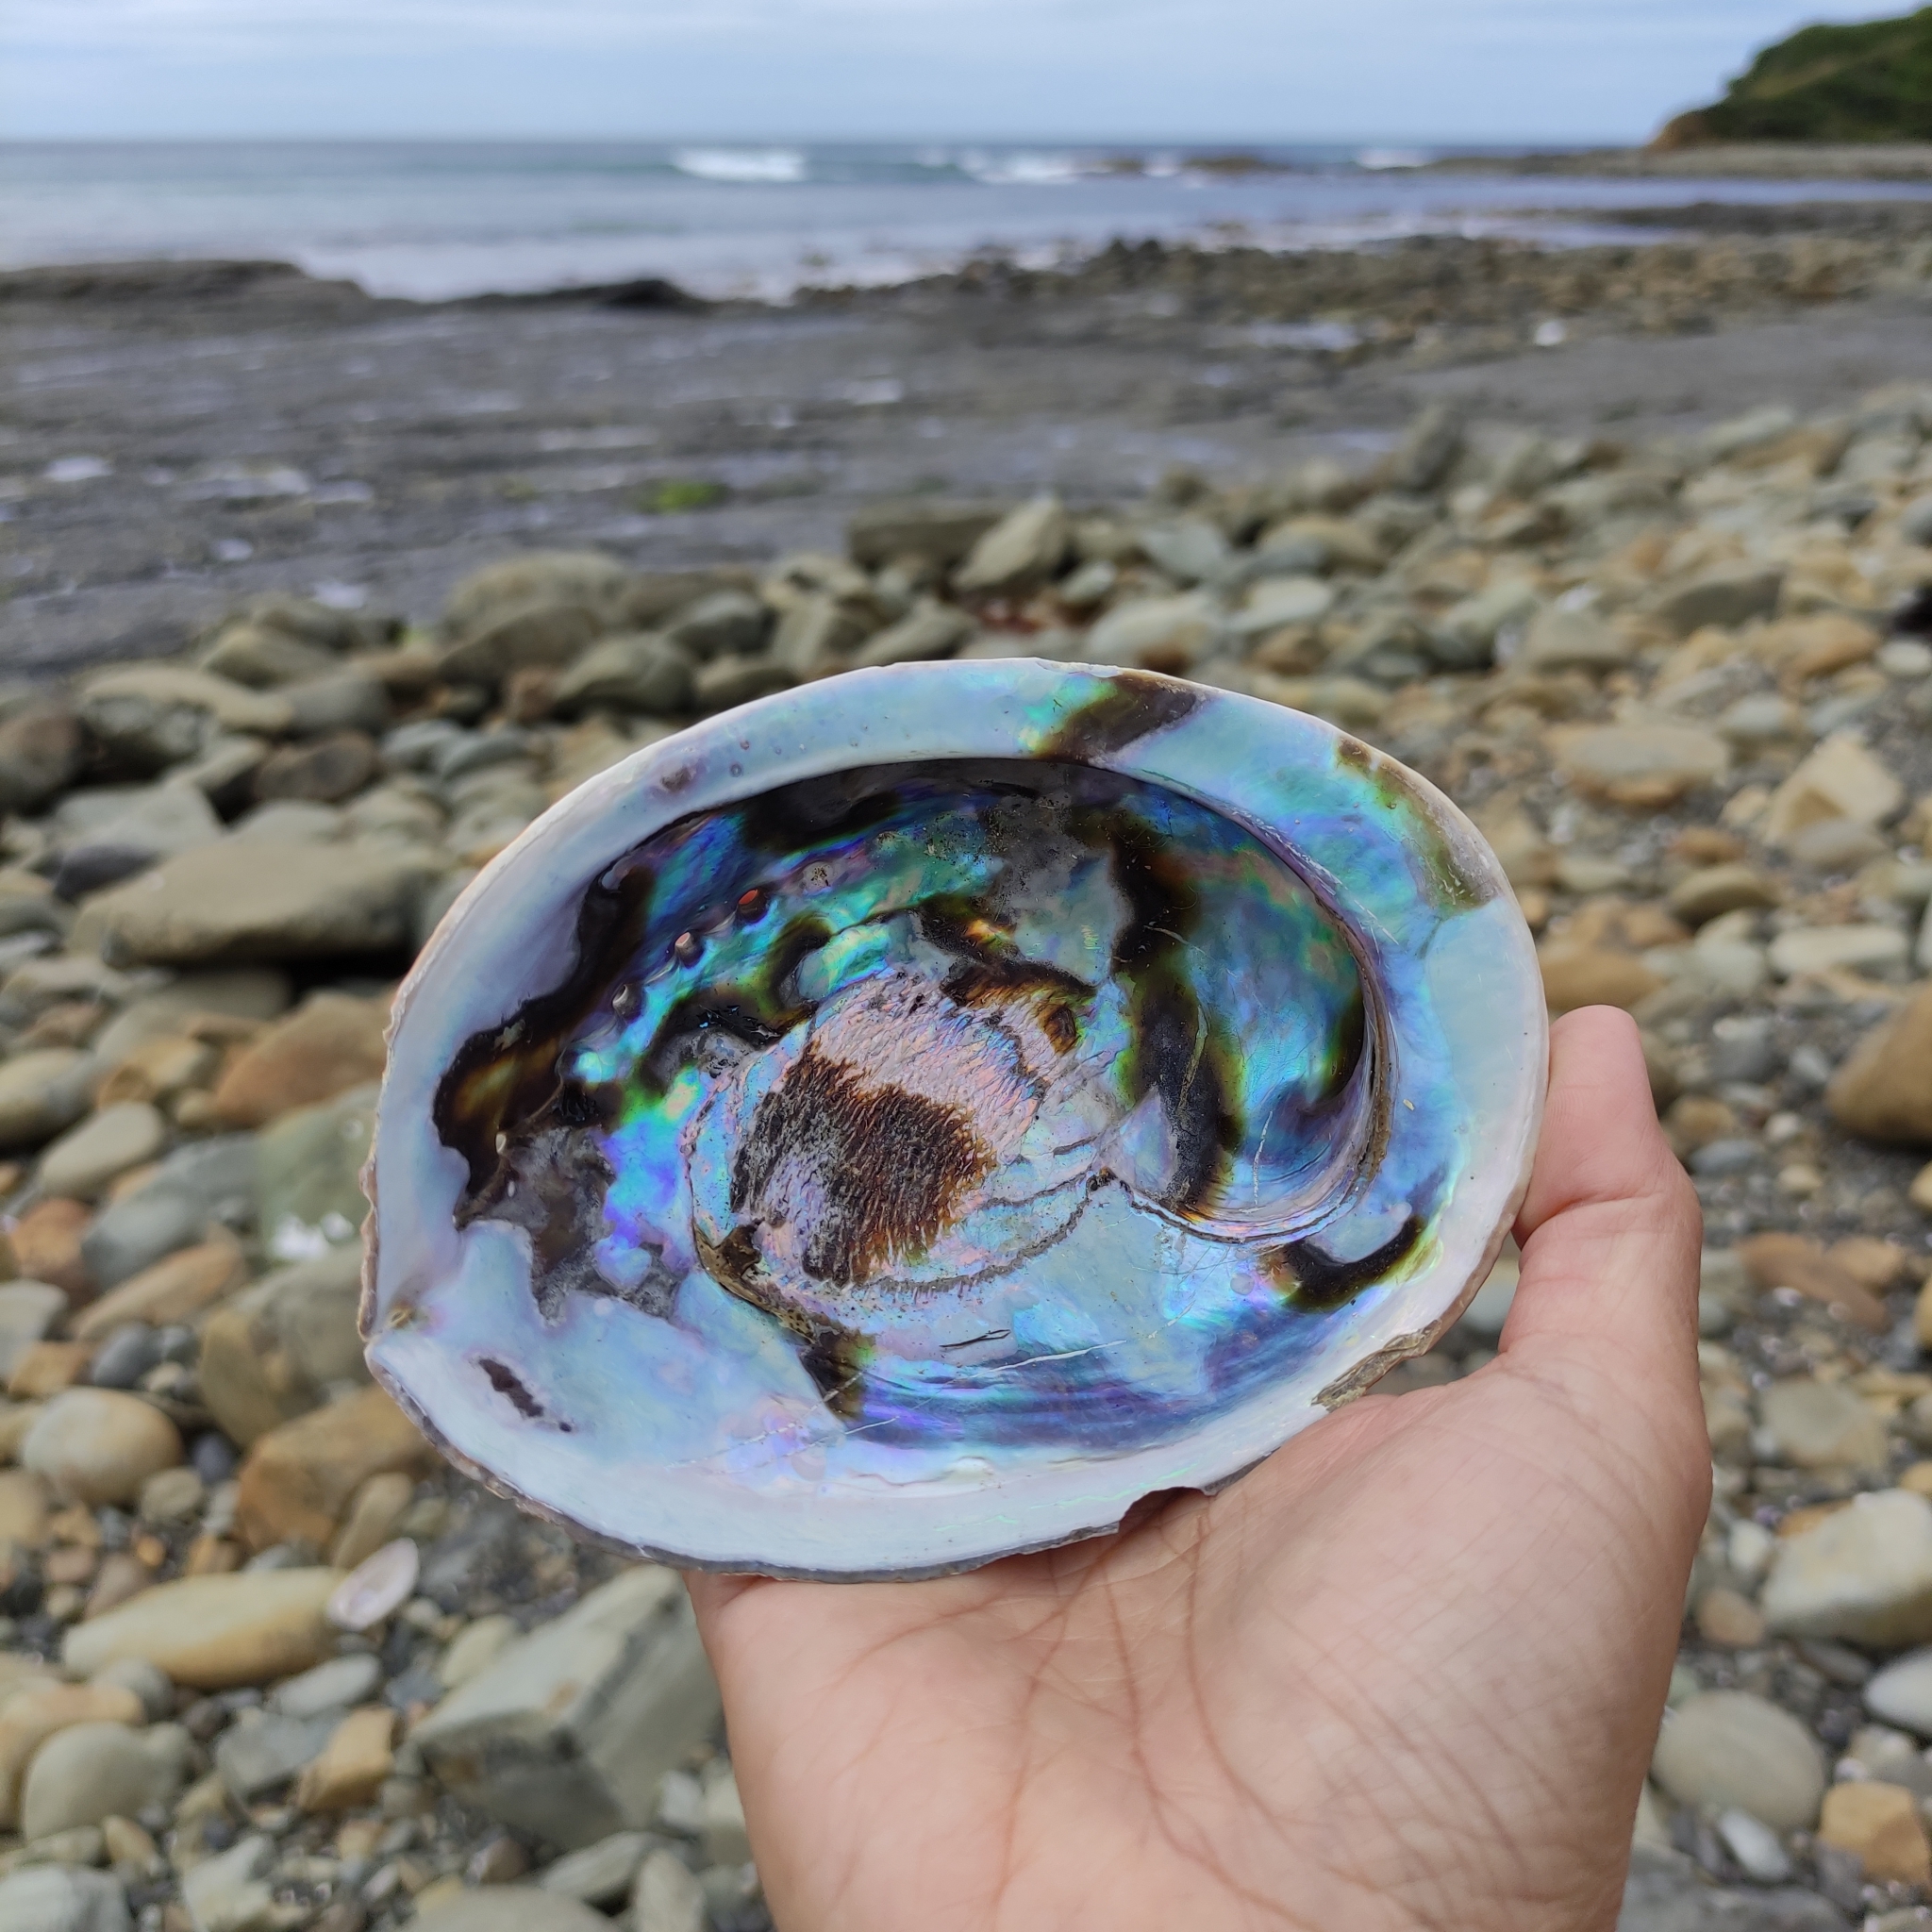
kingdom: Animalia
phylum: Mollusca
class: Gastropoda
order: Lepetellida
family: Haliotidae
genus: Haliotis
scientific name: Haliotis iris
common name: Abalone
